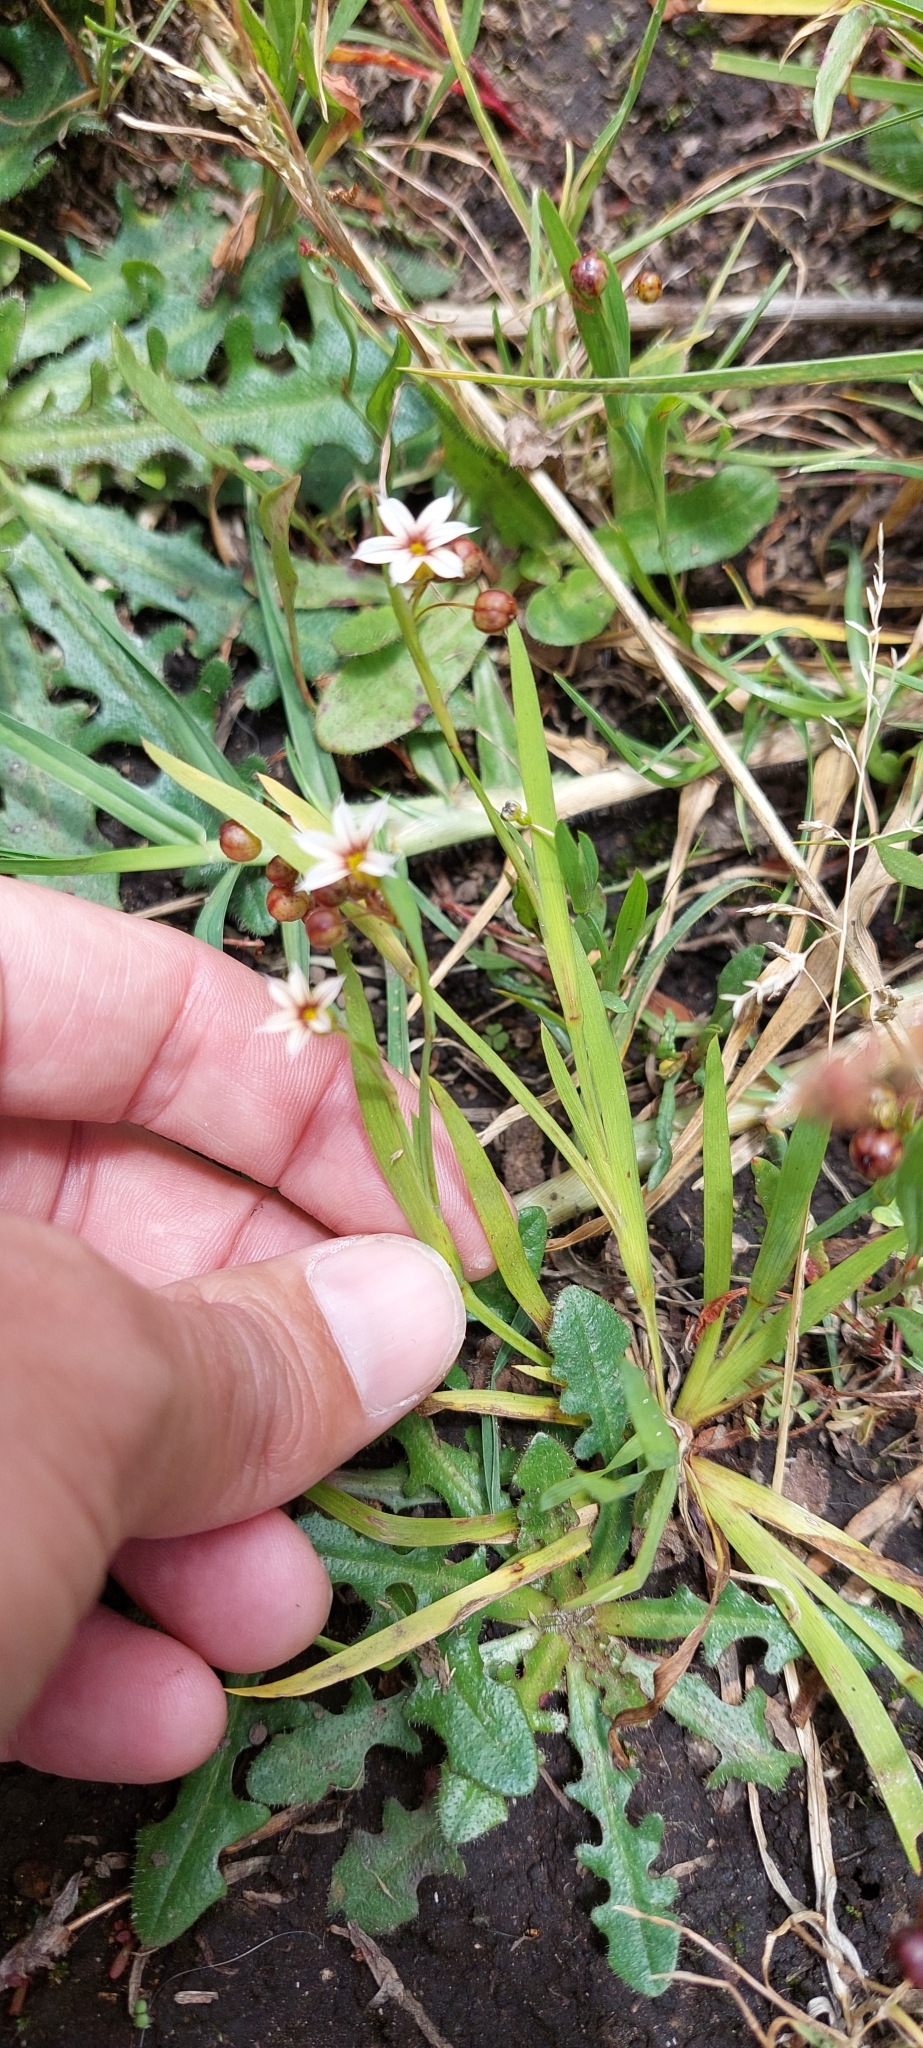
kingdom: Plantae
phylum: Tracheophyta
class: Liliopsida
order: Asparagales
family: Iridaceae
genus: Sisyrinchium
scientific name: Sisyrinchium micranthum
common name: Bermuda pigroot
